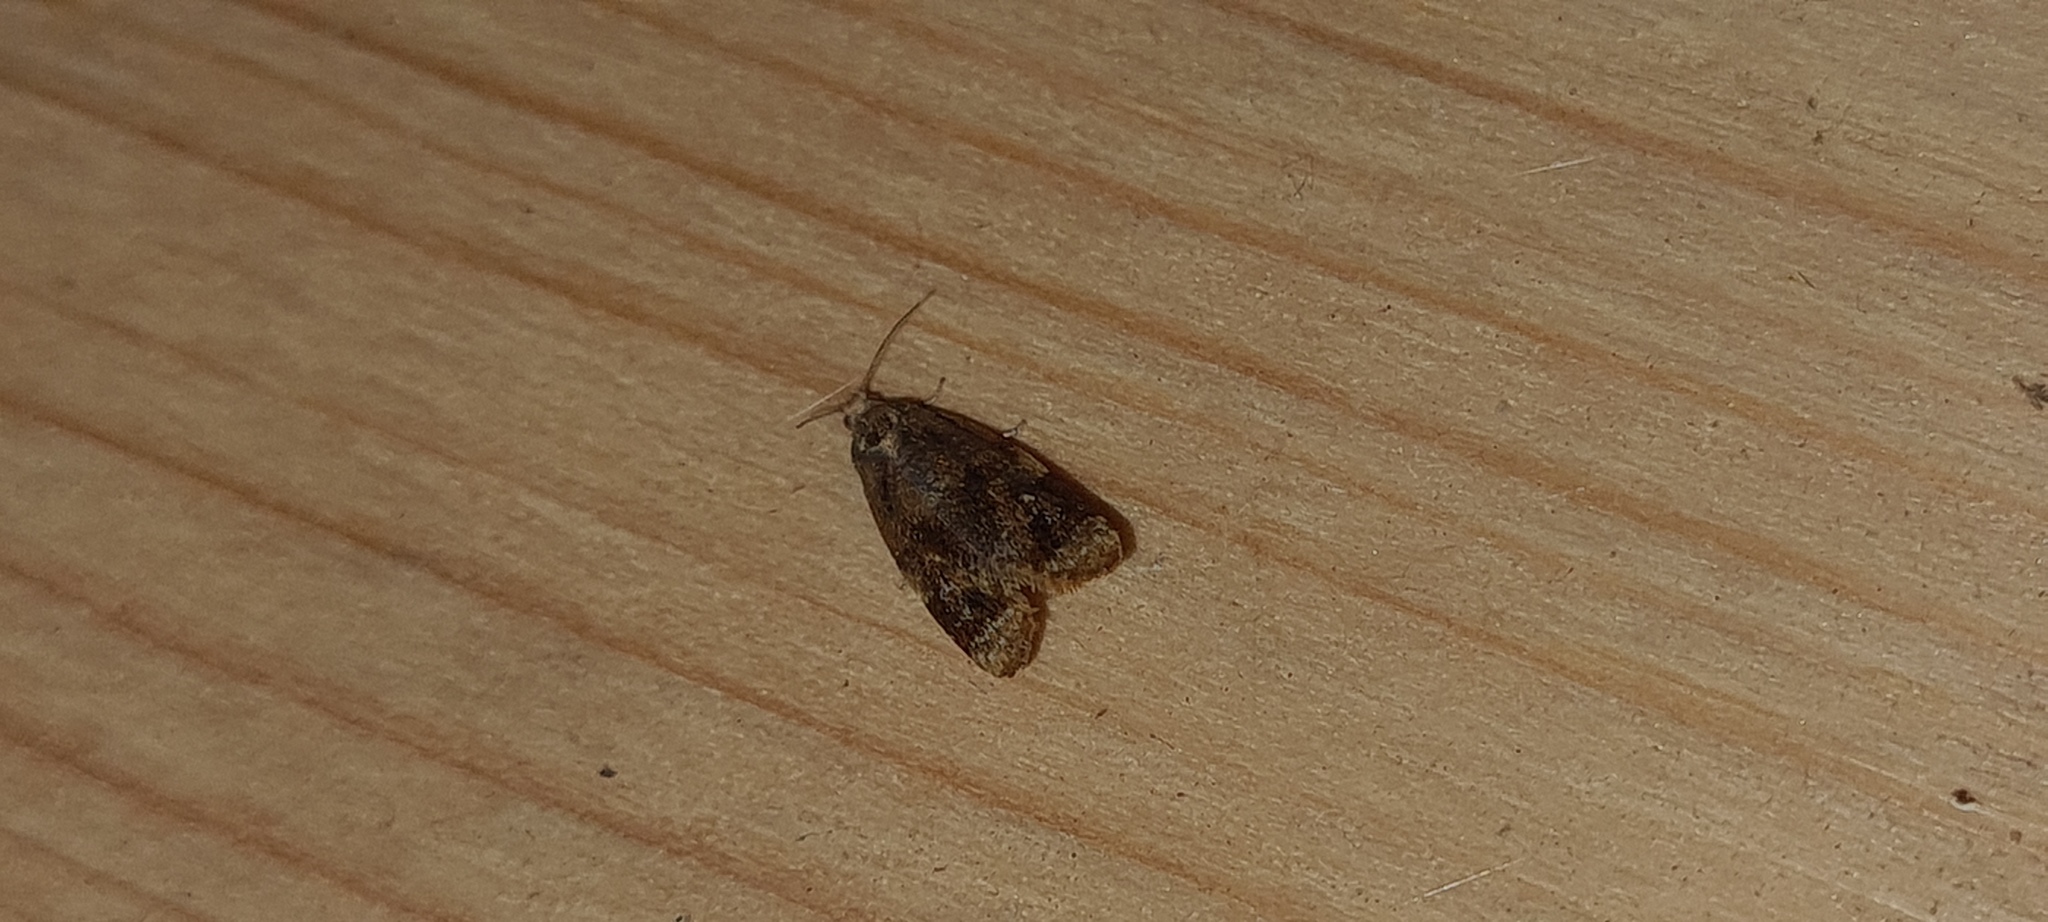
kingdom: Animalia
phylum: Arthropoda
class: Insecta
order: Lepidoptera
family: Tortricidae
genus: Ditula
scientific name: Ditula angustiorana
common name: Red-barred tortrix
